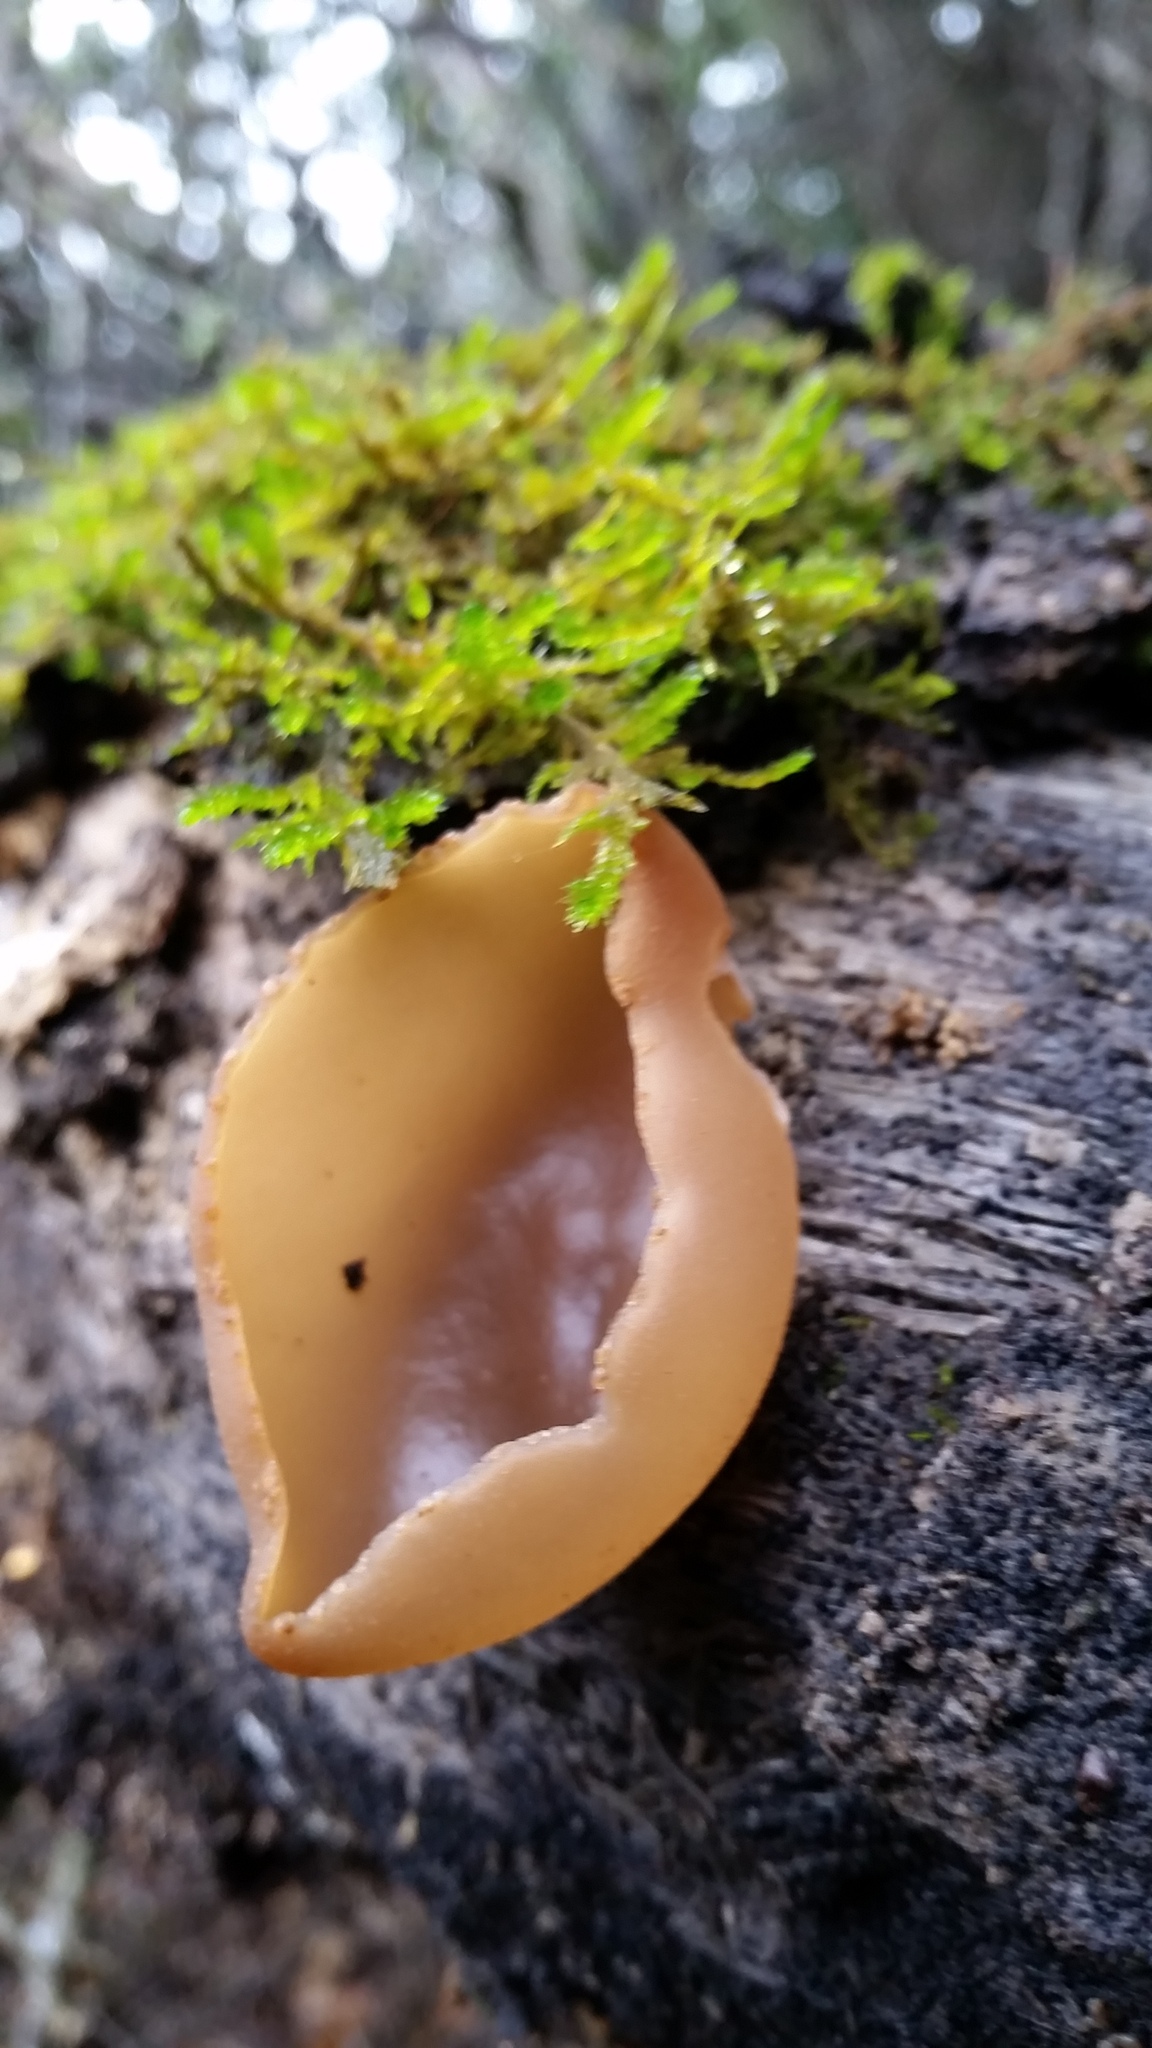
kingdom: Fungi
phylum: Ascomycota
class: Pezizomycetes
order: Pezizales
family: Pezizaceae
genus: Peziza
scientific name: Peziza varia
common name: Layered cup
